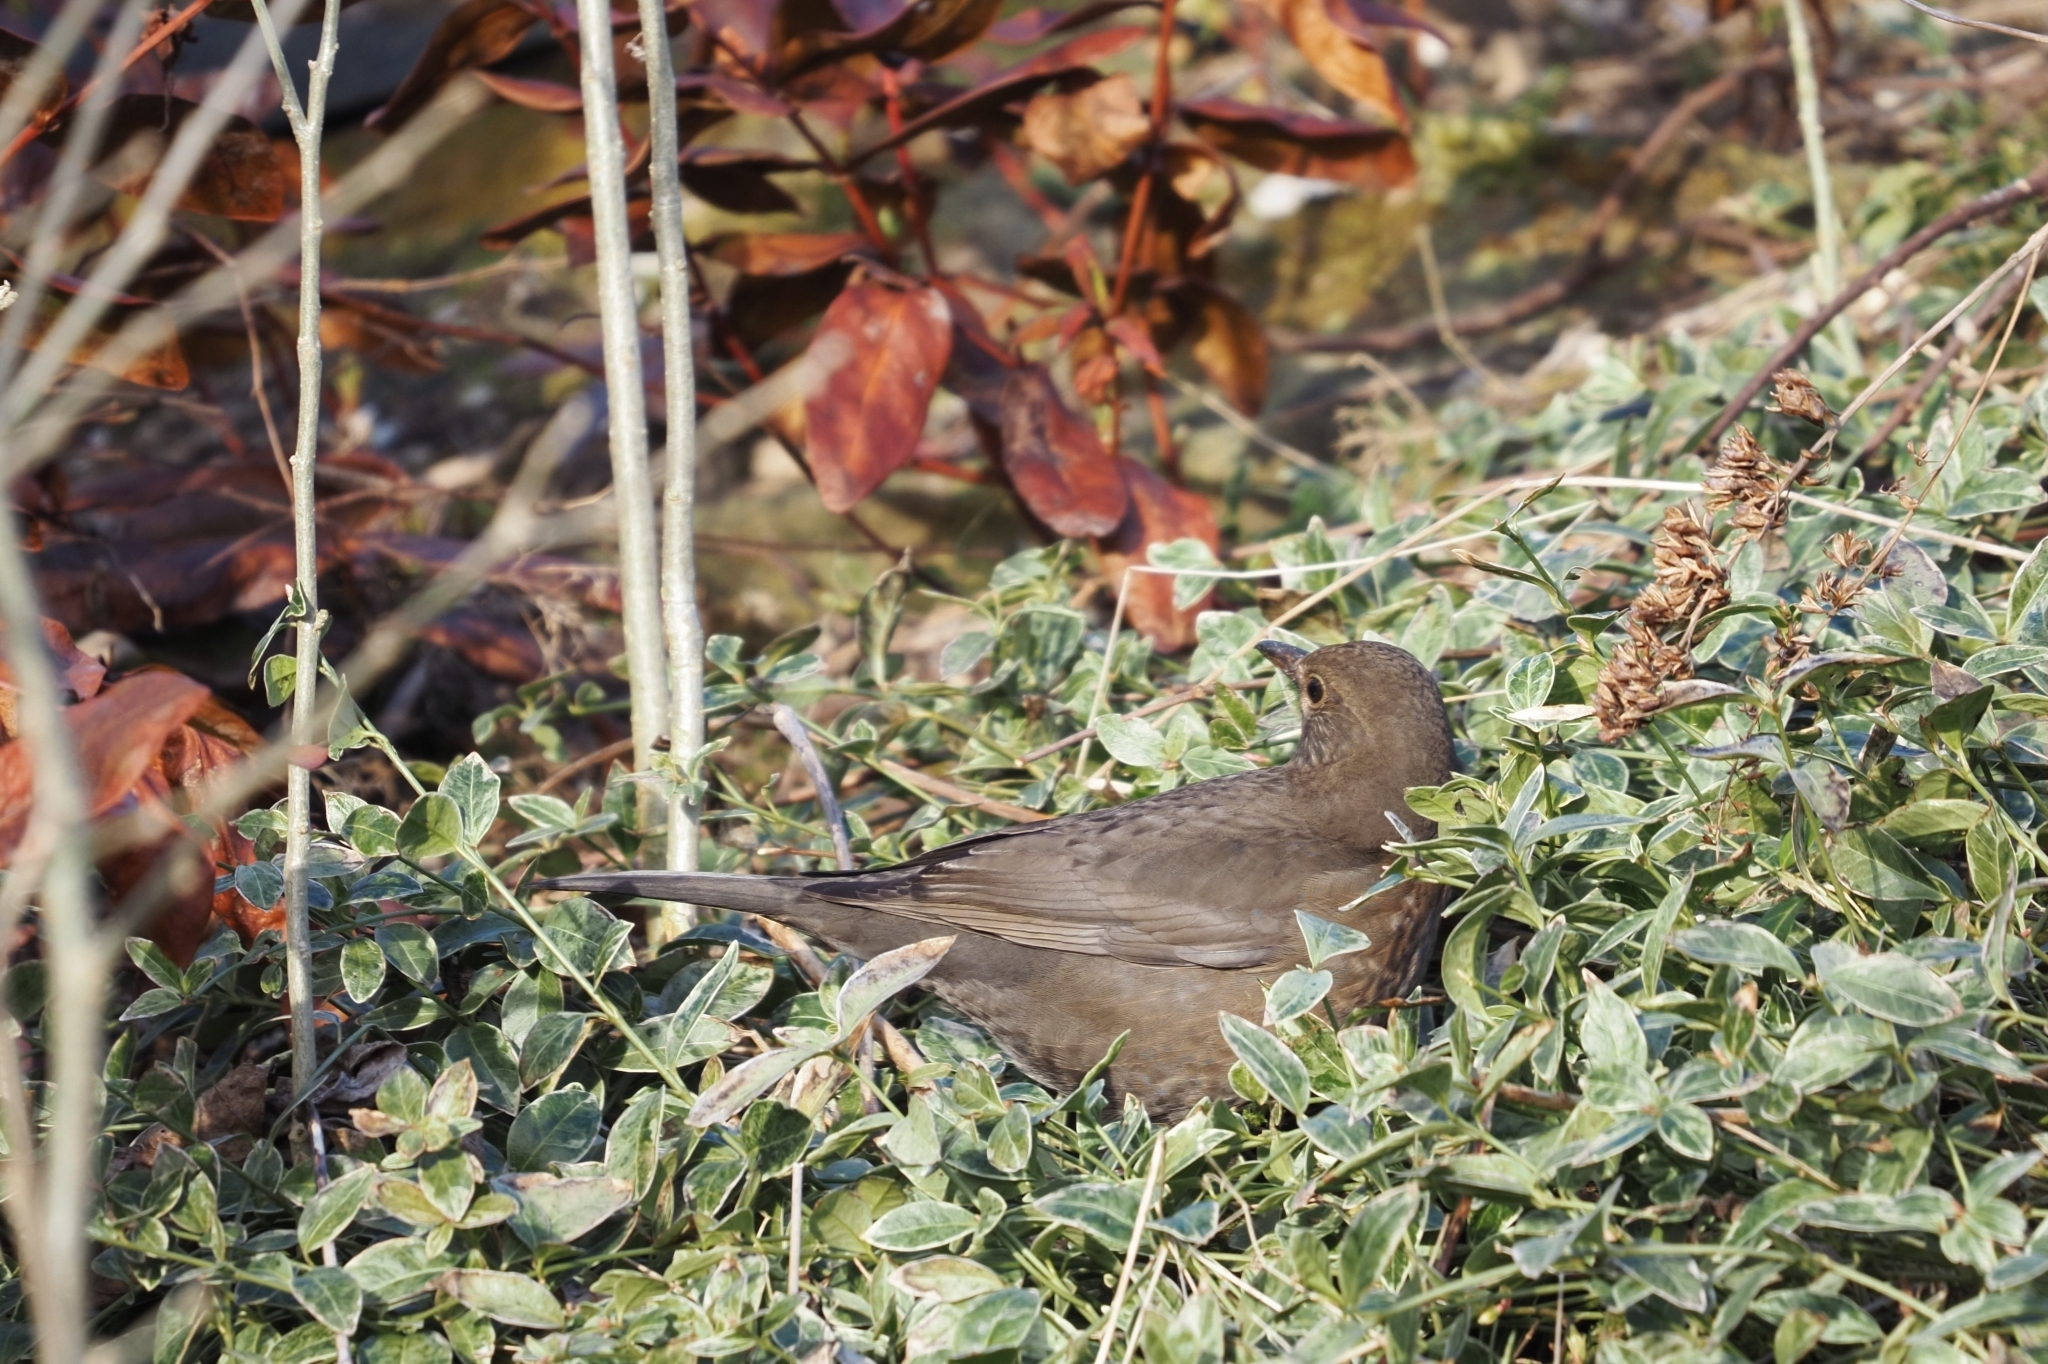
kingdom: Animalia
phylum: Chordata
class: Aves
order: Passeriformes
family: Turdidae
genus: Turdus
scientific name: Turdus merula
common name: Common blackbird
